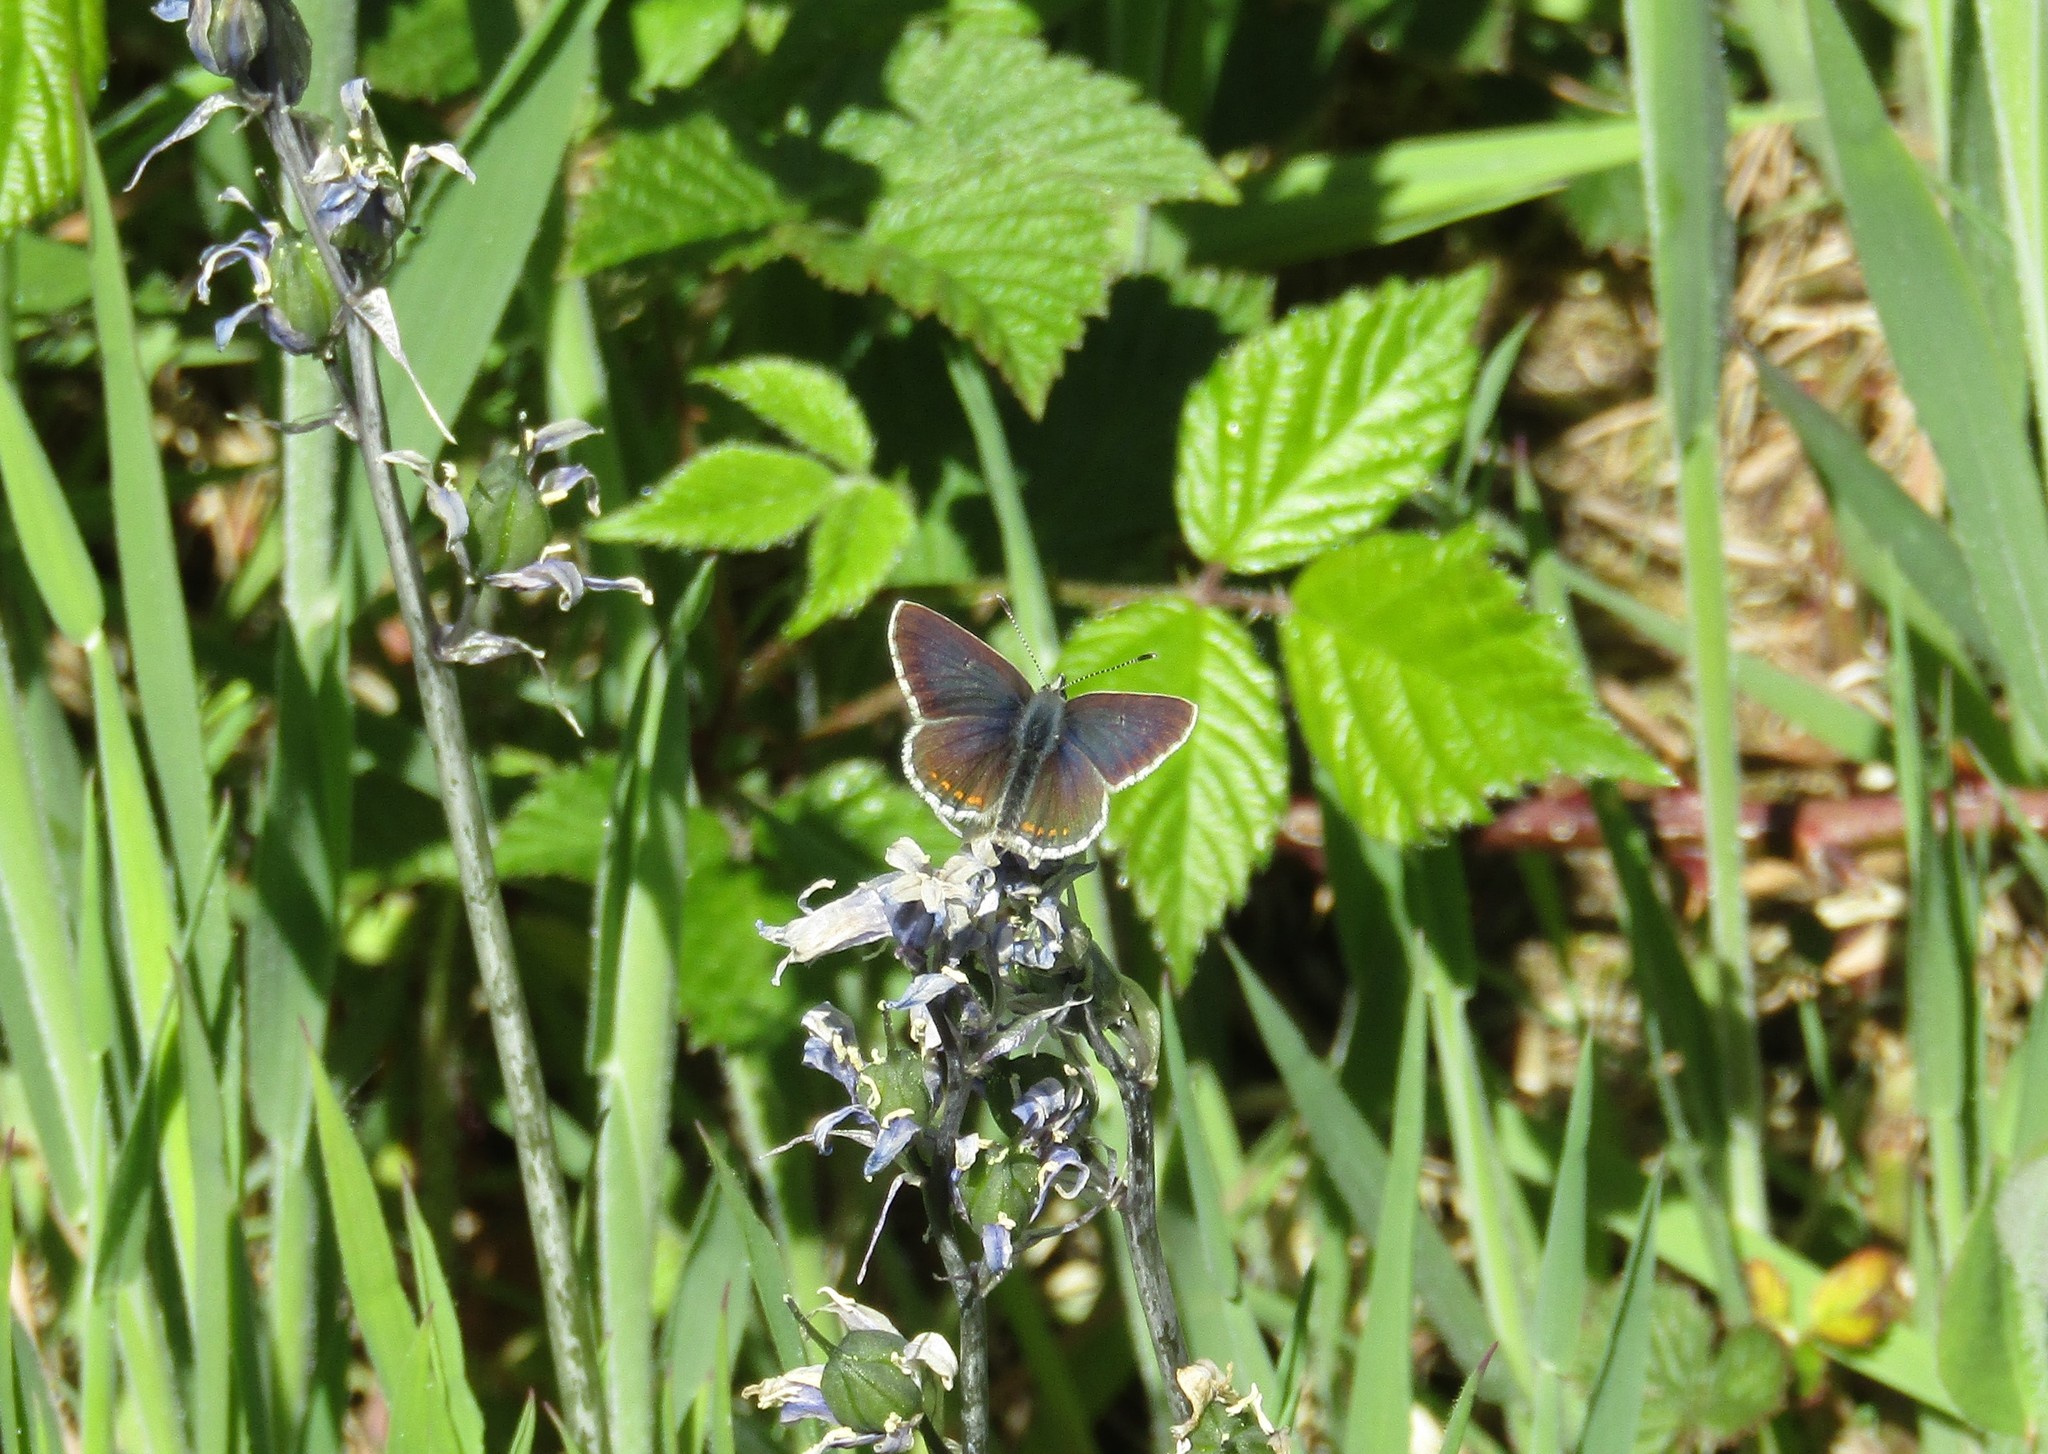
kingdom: Animalia
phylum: Arthropoda
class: Insecta
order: Lepidoptera
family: Lycaenidae
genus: Aricia
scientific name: Aricia artaxerxes
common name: Northern brown argus
